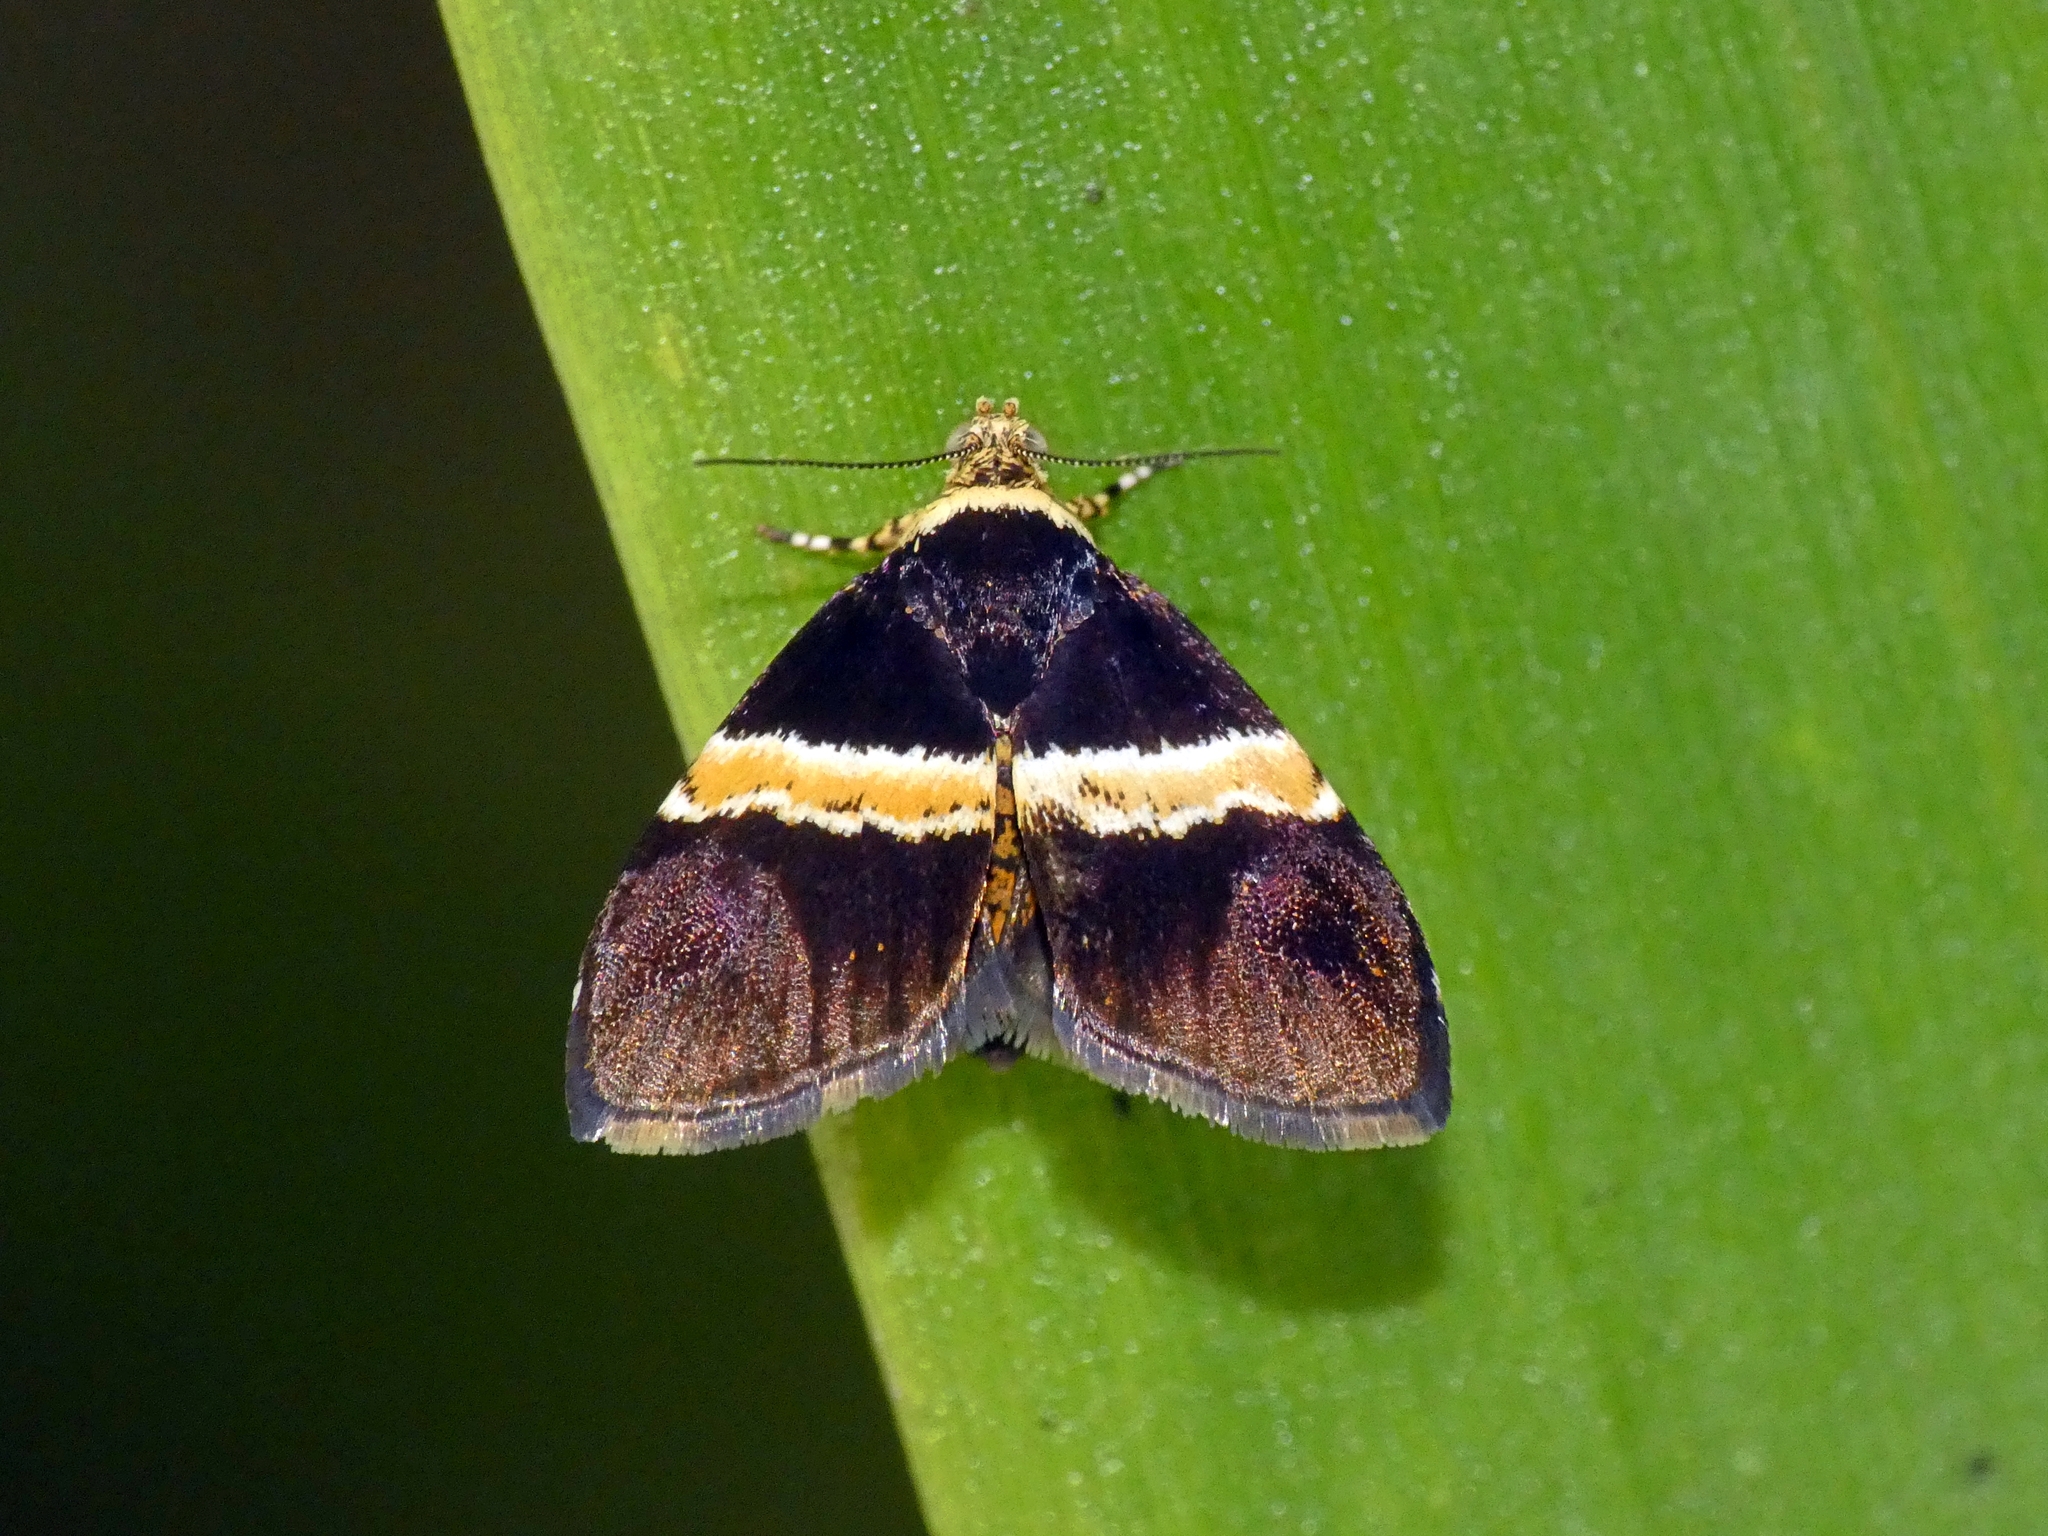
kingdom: Animalia
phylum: Arthropoda
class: Insecta
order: Lepidoptera
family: Choreutidae
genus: Choreutis
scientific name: Choreutis basalis
